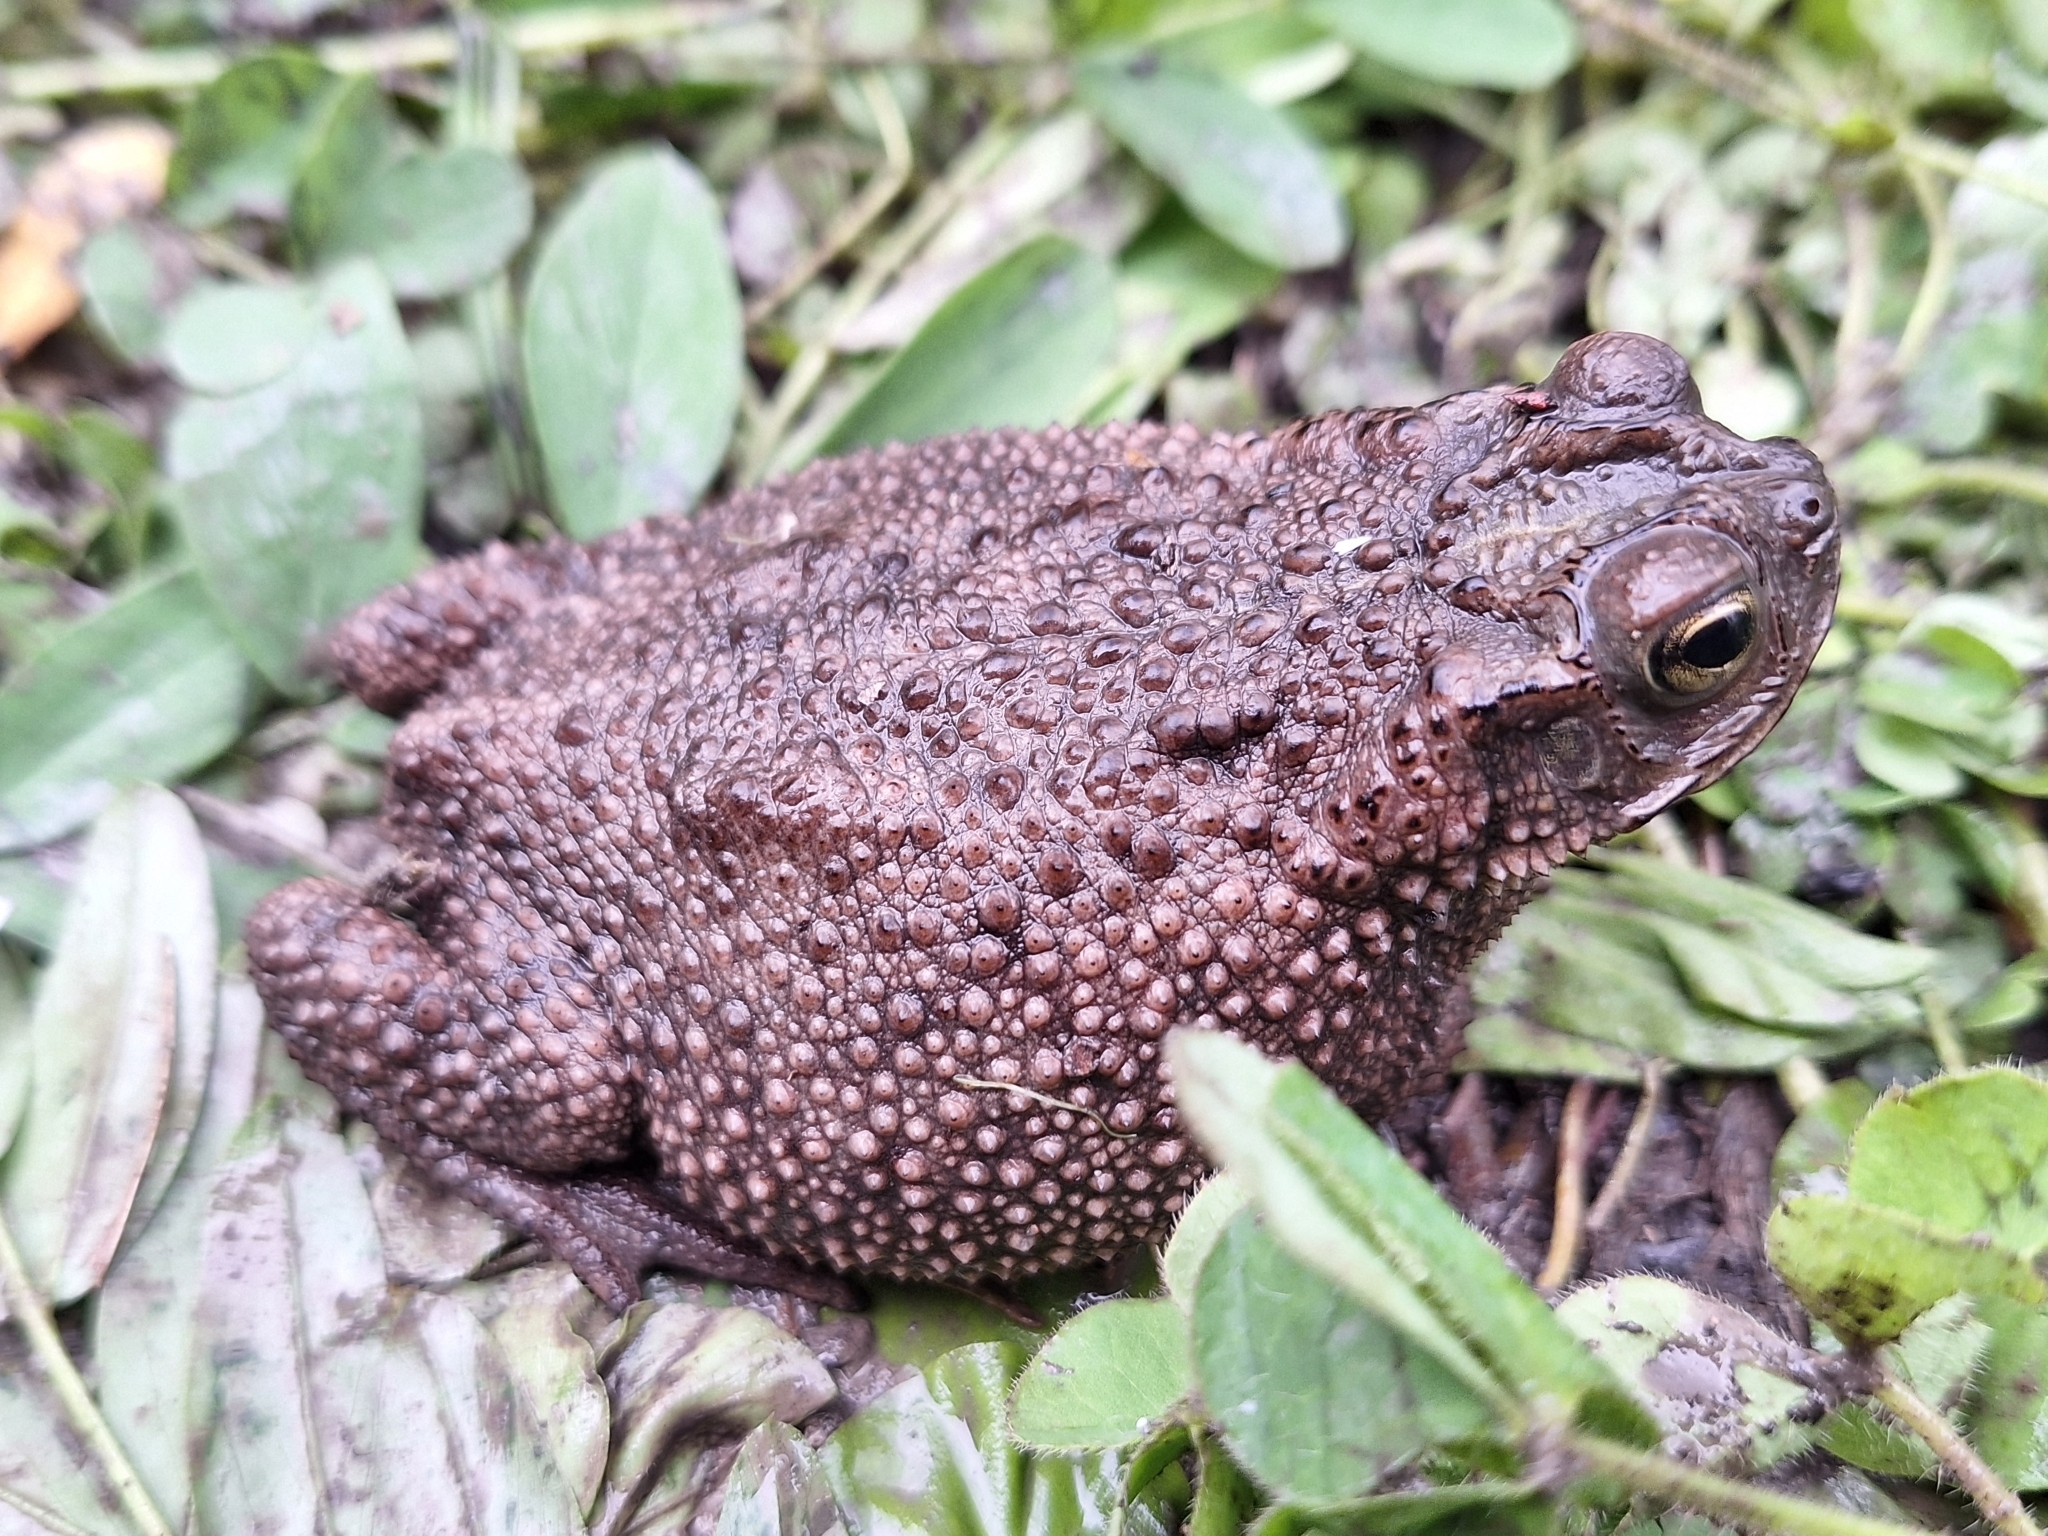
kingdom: Animalia
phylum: Chordata
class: Amphibia
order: Anura
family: Bufonidae
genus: Rhinella
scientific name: Rhinella dorbignyi
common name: D´orbigny’s toad
